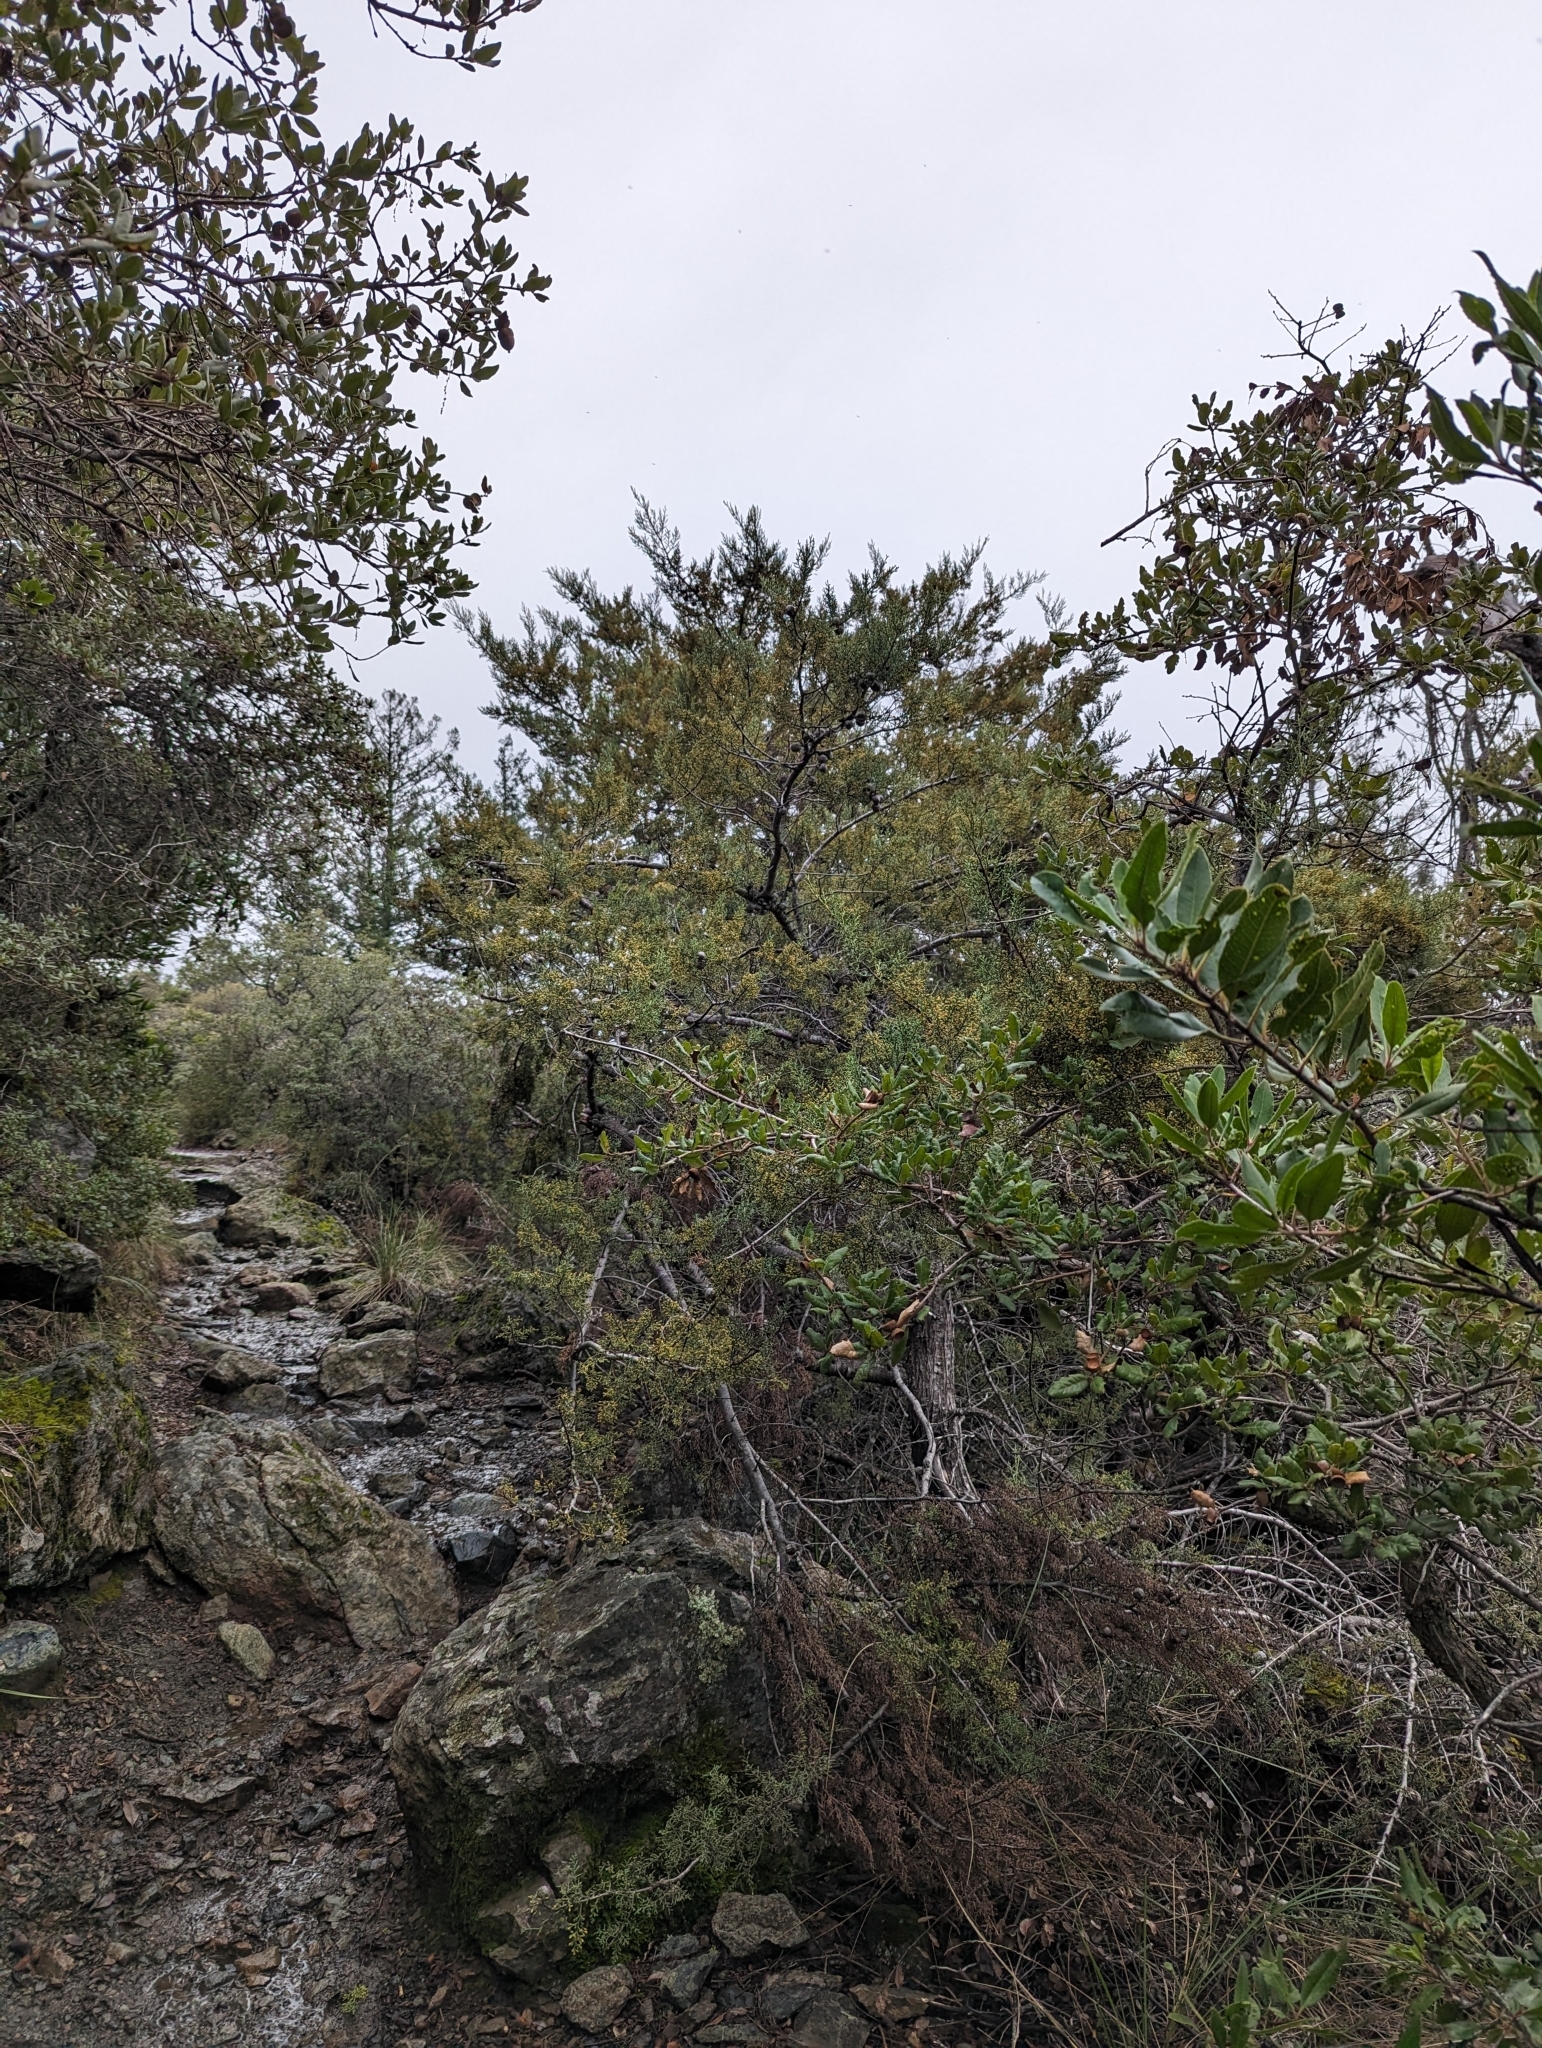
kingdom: Plantae
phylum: Tracheophyta
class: Pinopsida
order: Pinales
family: Cupressaceae
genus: Cupressus
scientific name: Cupressus sargentii
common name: Sargent cypress
